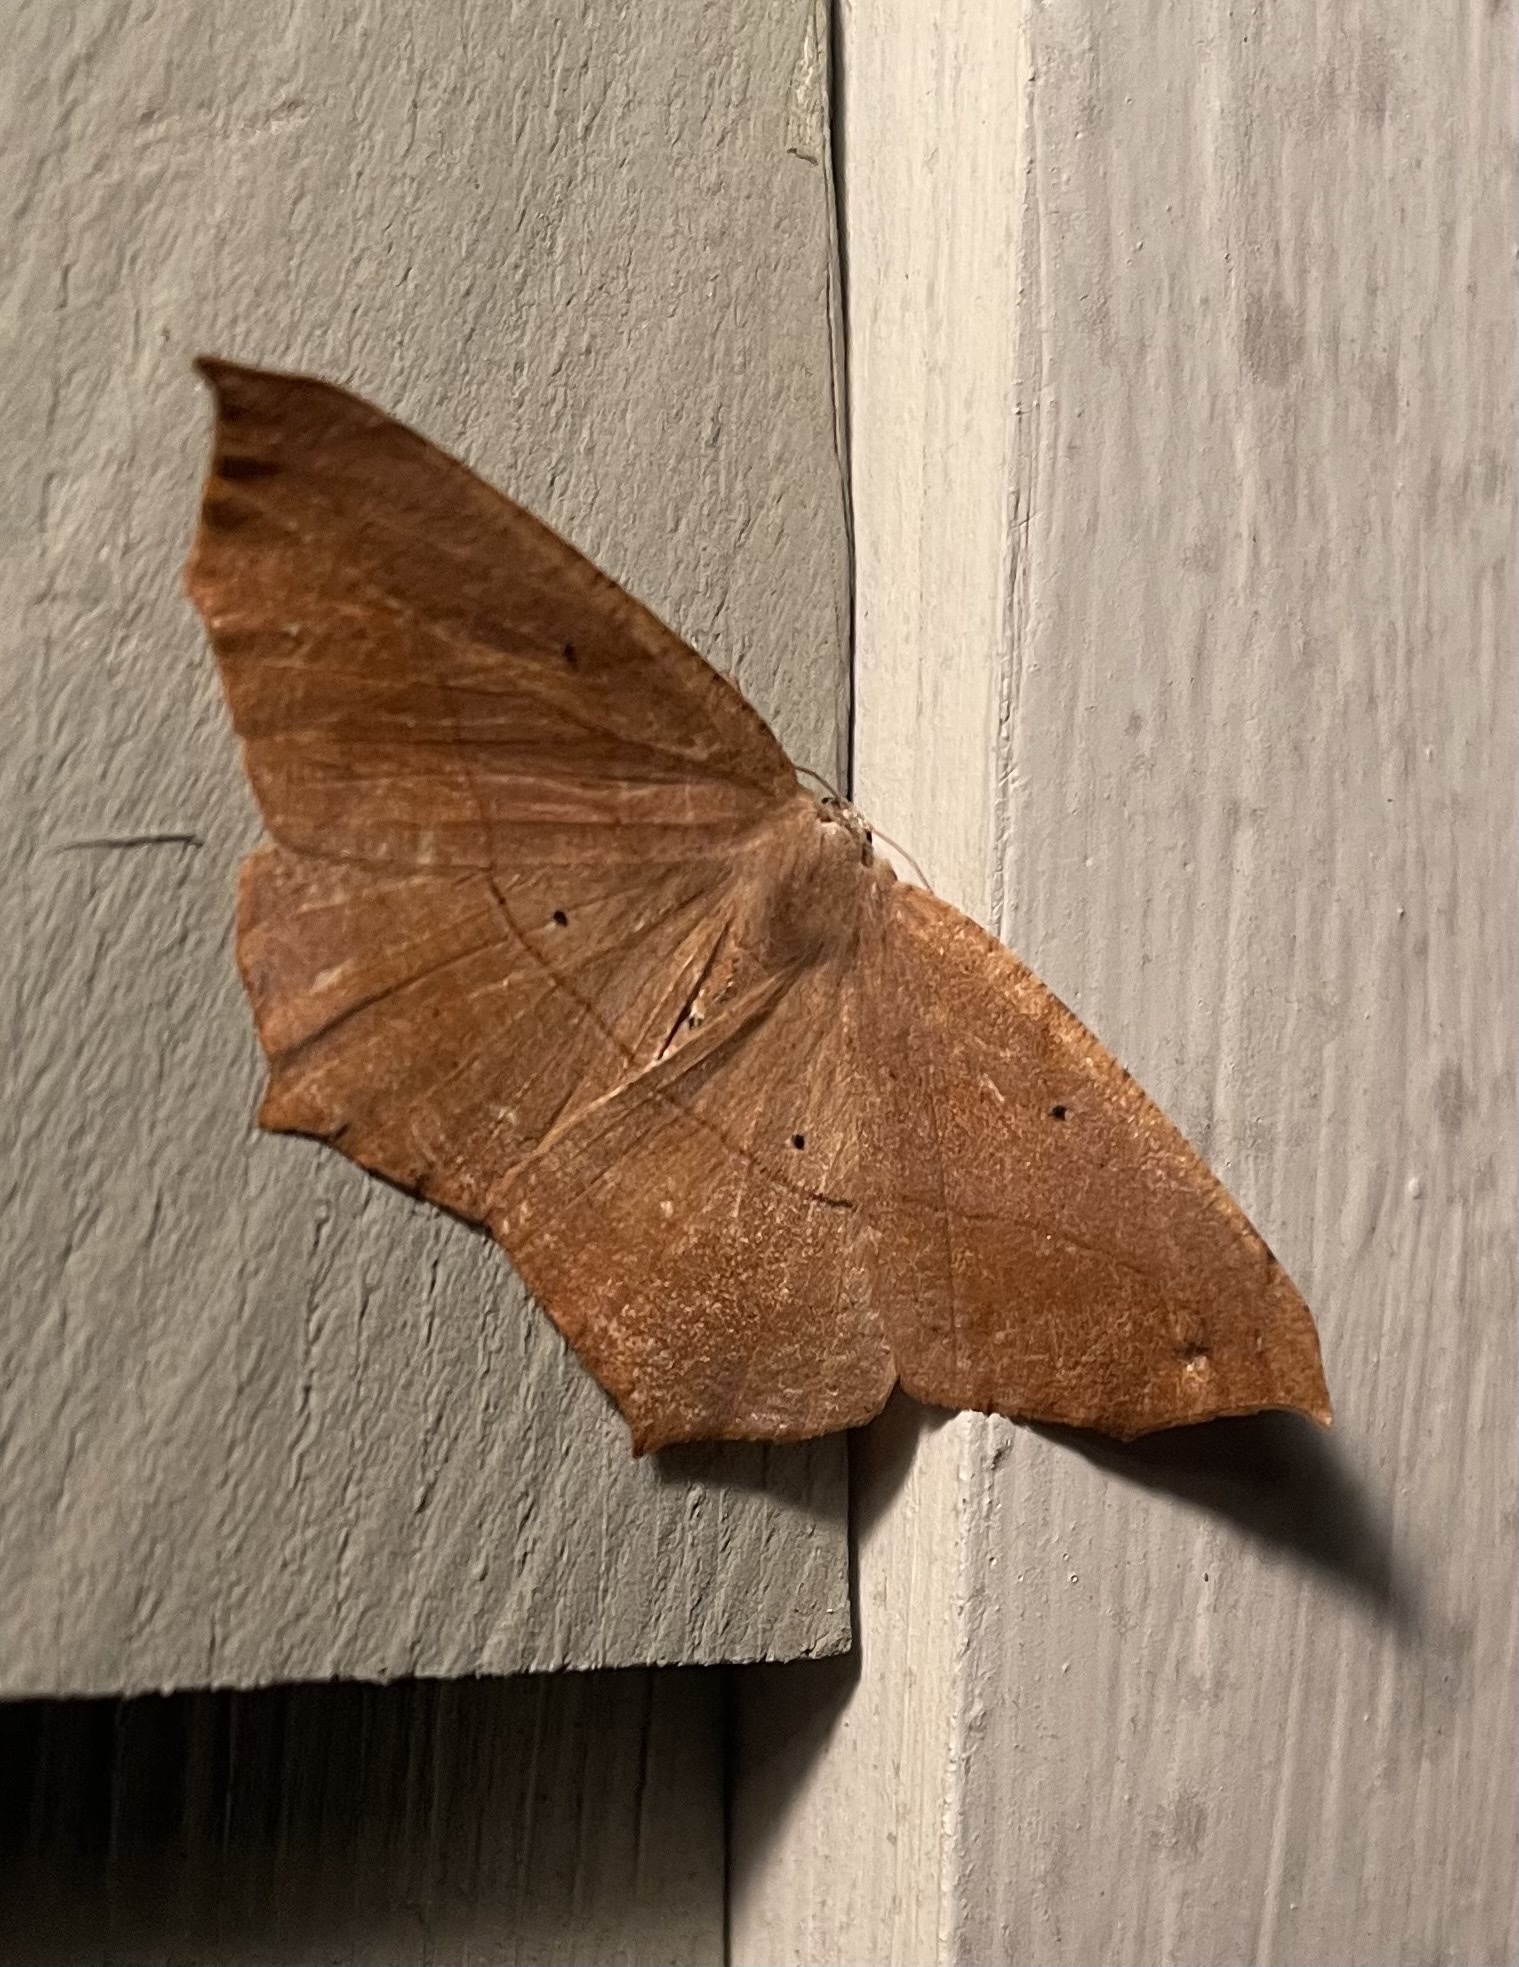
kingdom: Animalia
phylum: Arthropoda
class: Insecta
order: Lepidoptera
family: Geometridae
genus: Prochoerodes
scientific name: Prochoerodes lineola
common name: Large maple spanworm
